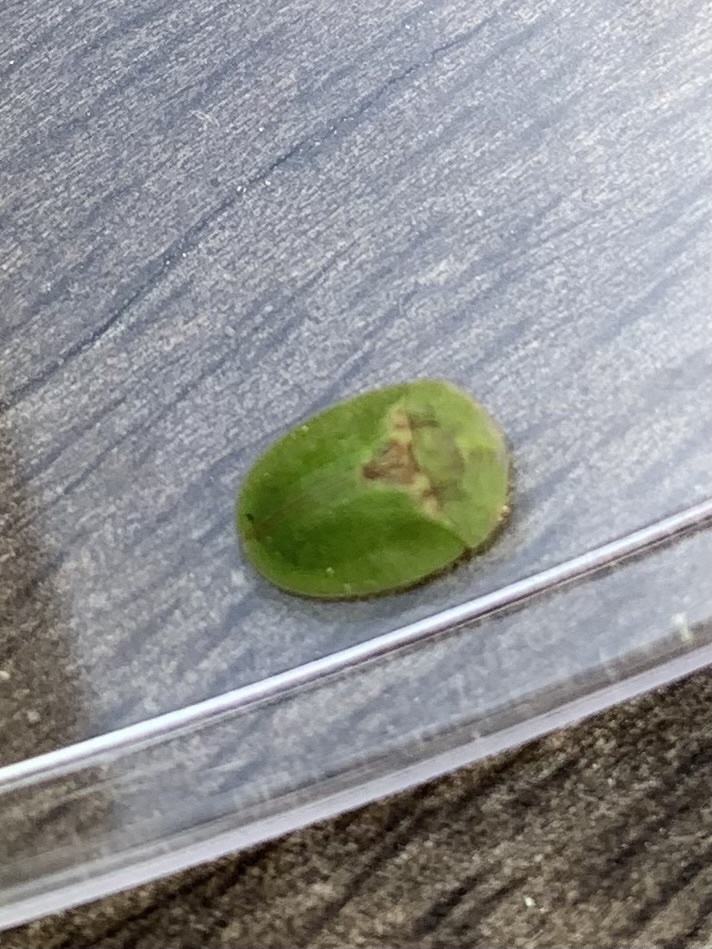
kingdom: Animalia
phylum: Arthropoda
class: Insecta
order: Coleoptera
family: Chrysomelidae
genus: Cassida
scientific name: Cassida rubiginosa
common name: Thistle tortoise beetle
